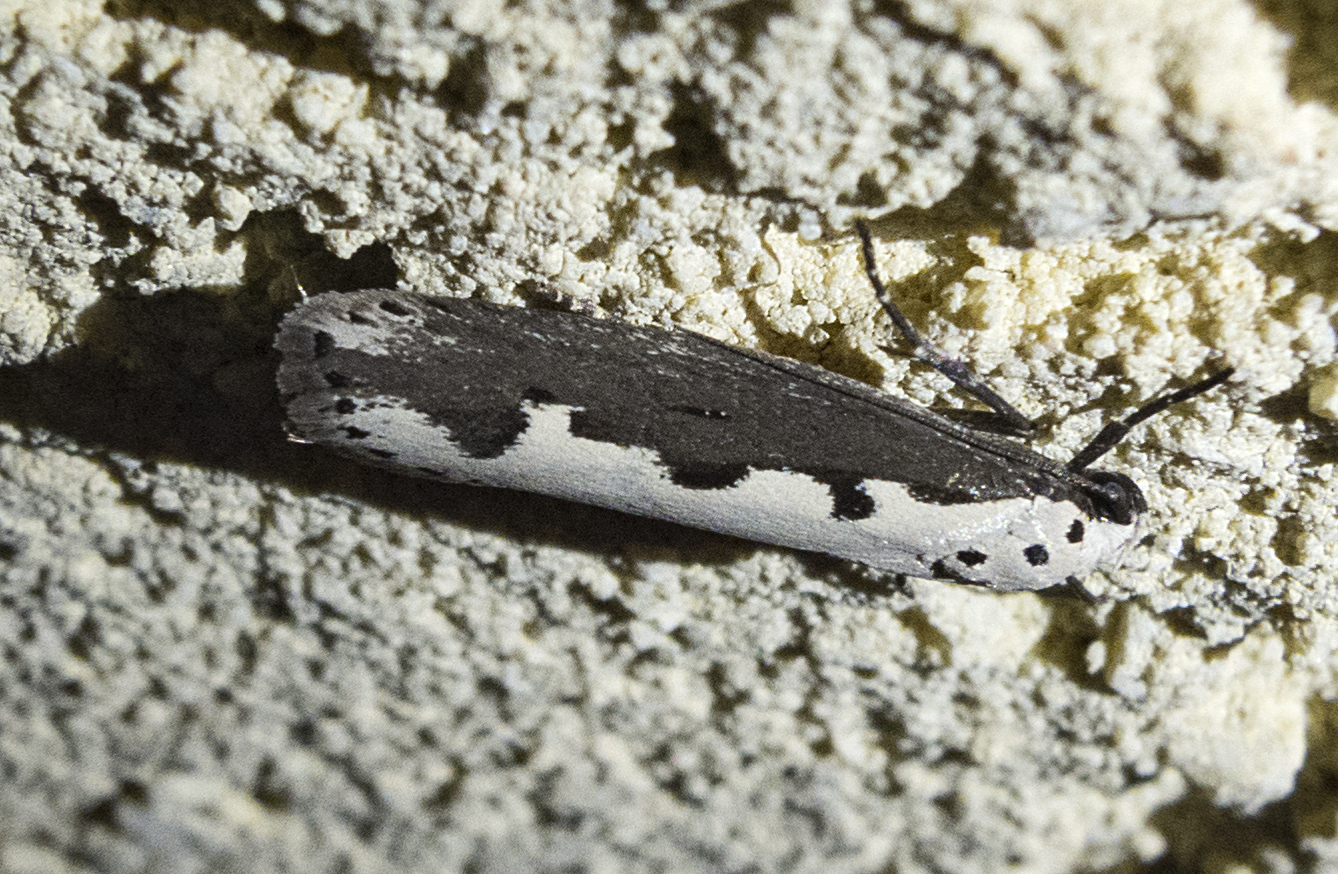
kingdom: Animalia
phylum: Arthropoda
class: Insecta
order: Lepidoptera
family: Ethmiidae
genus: Ethmia
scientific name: Ethmia bipunctella
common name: Bordered ermel
